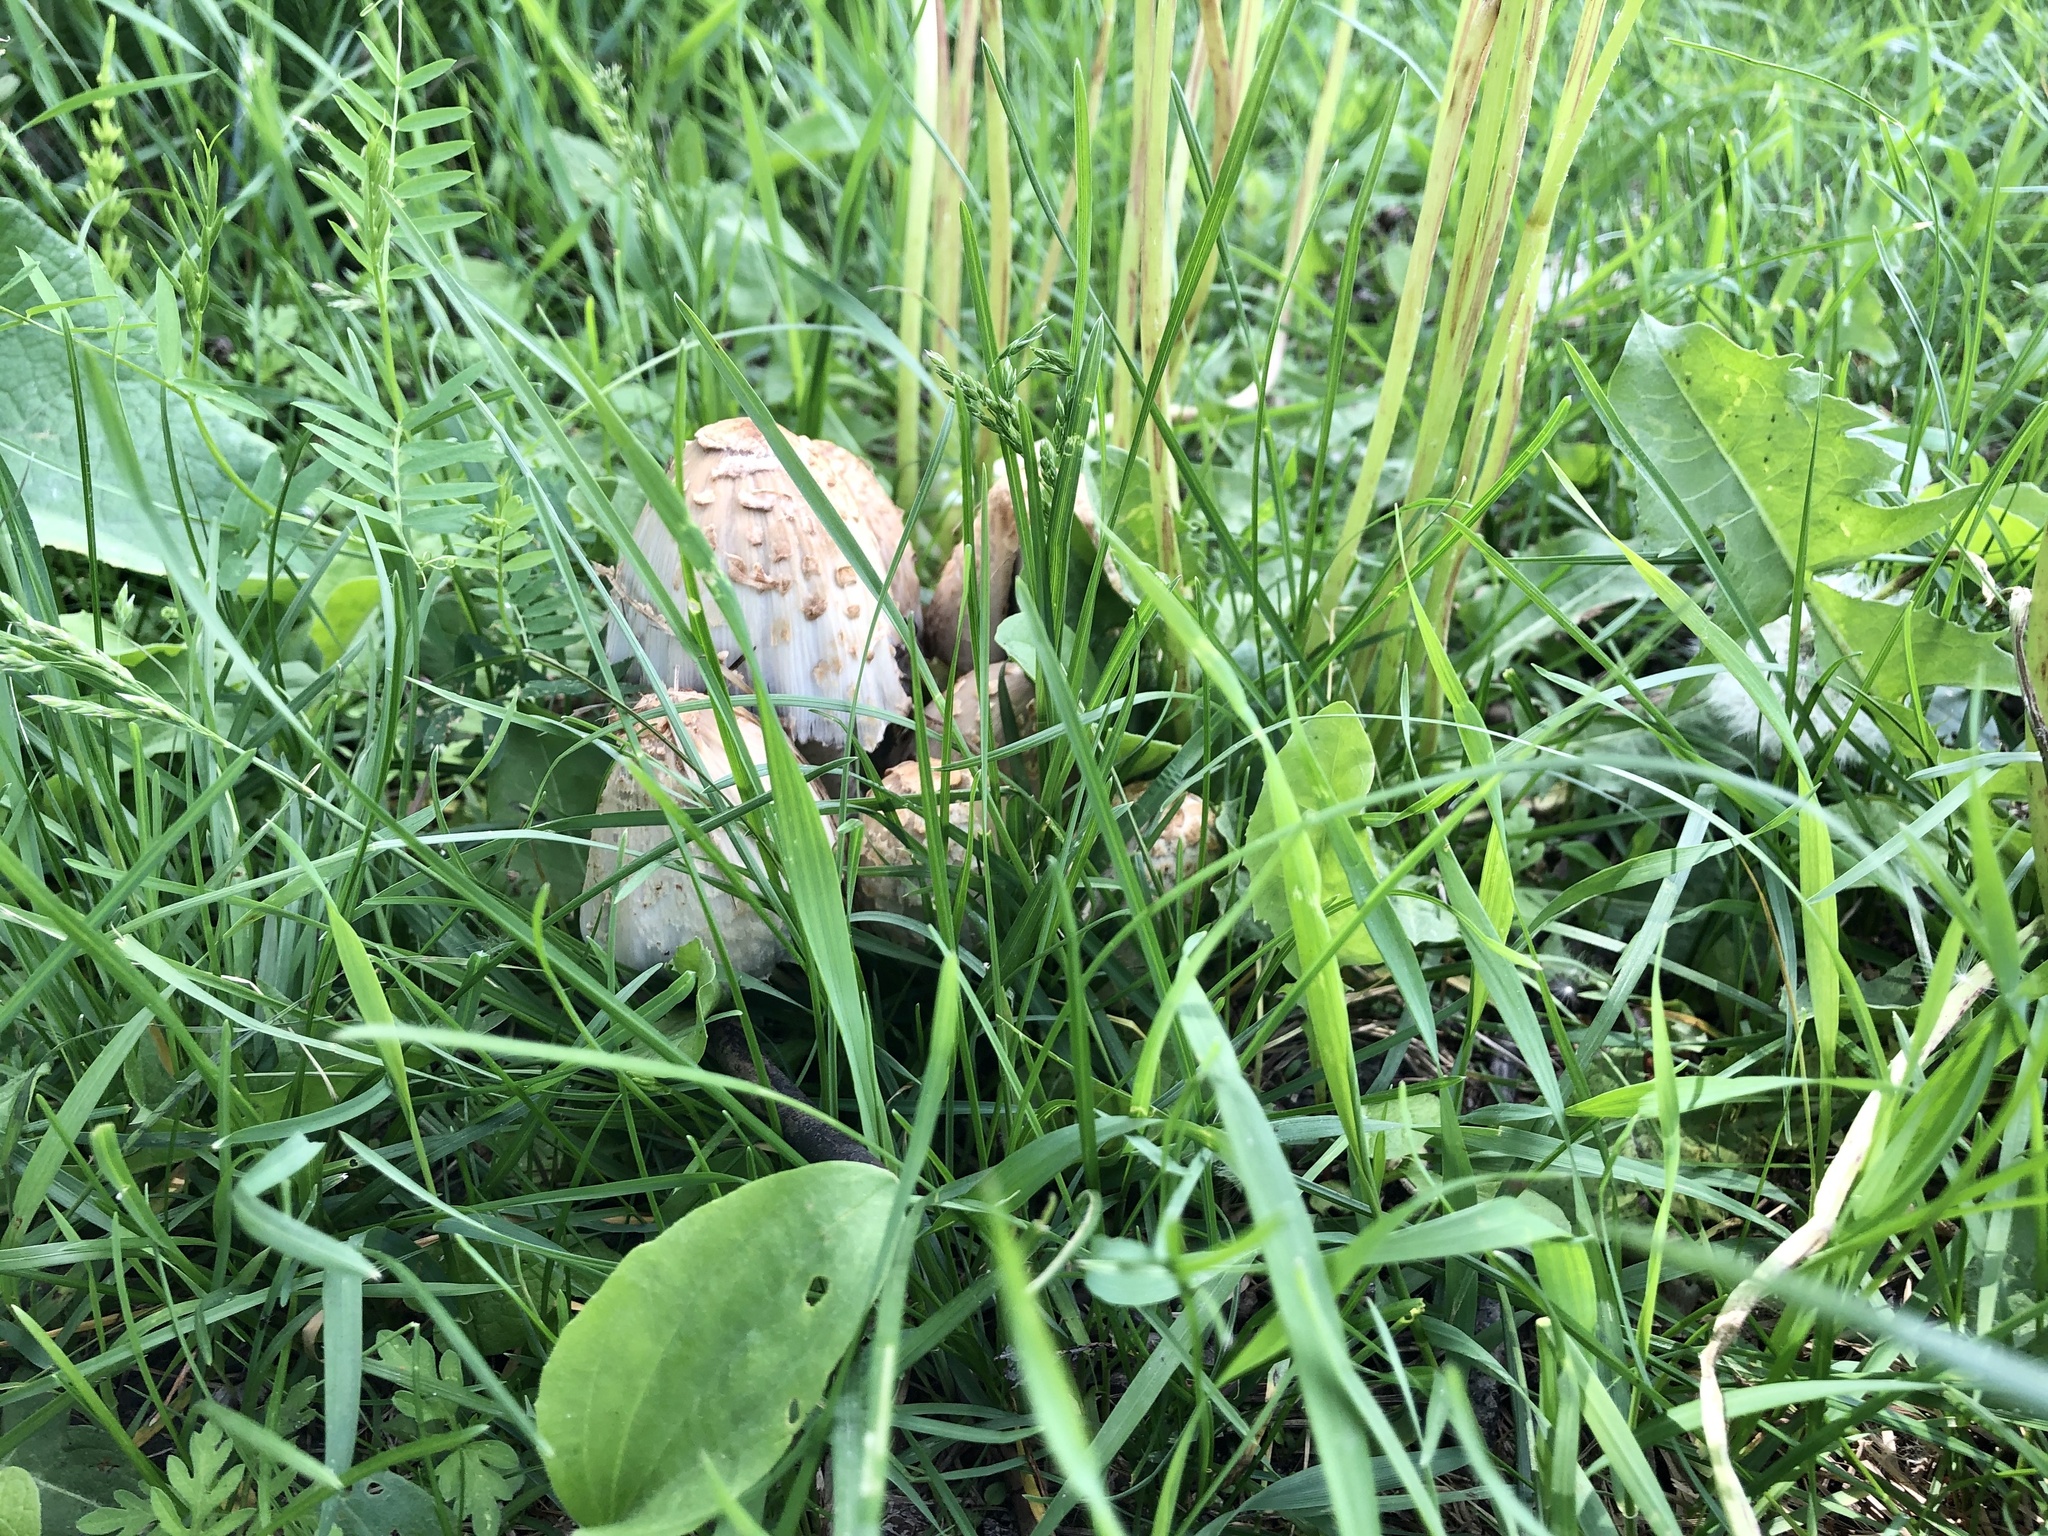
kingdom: Fungi
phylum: Basidiomycota
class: Agaricomycetes
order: Agaricales
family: Psathyrellaceae
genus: Coprinopsis
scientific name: Coprinopsis variegata
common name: Scaly ink cap
